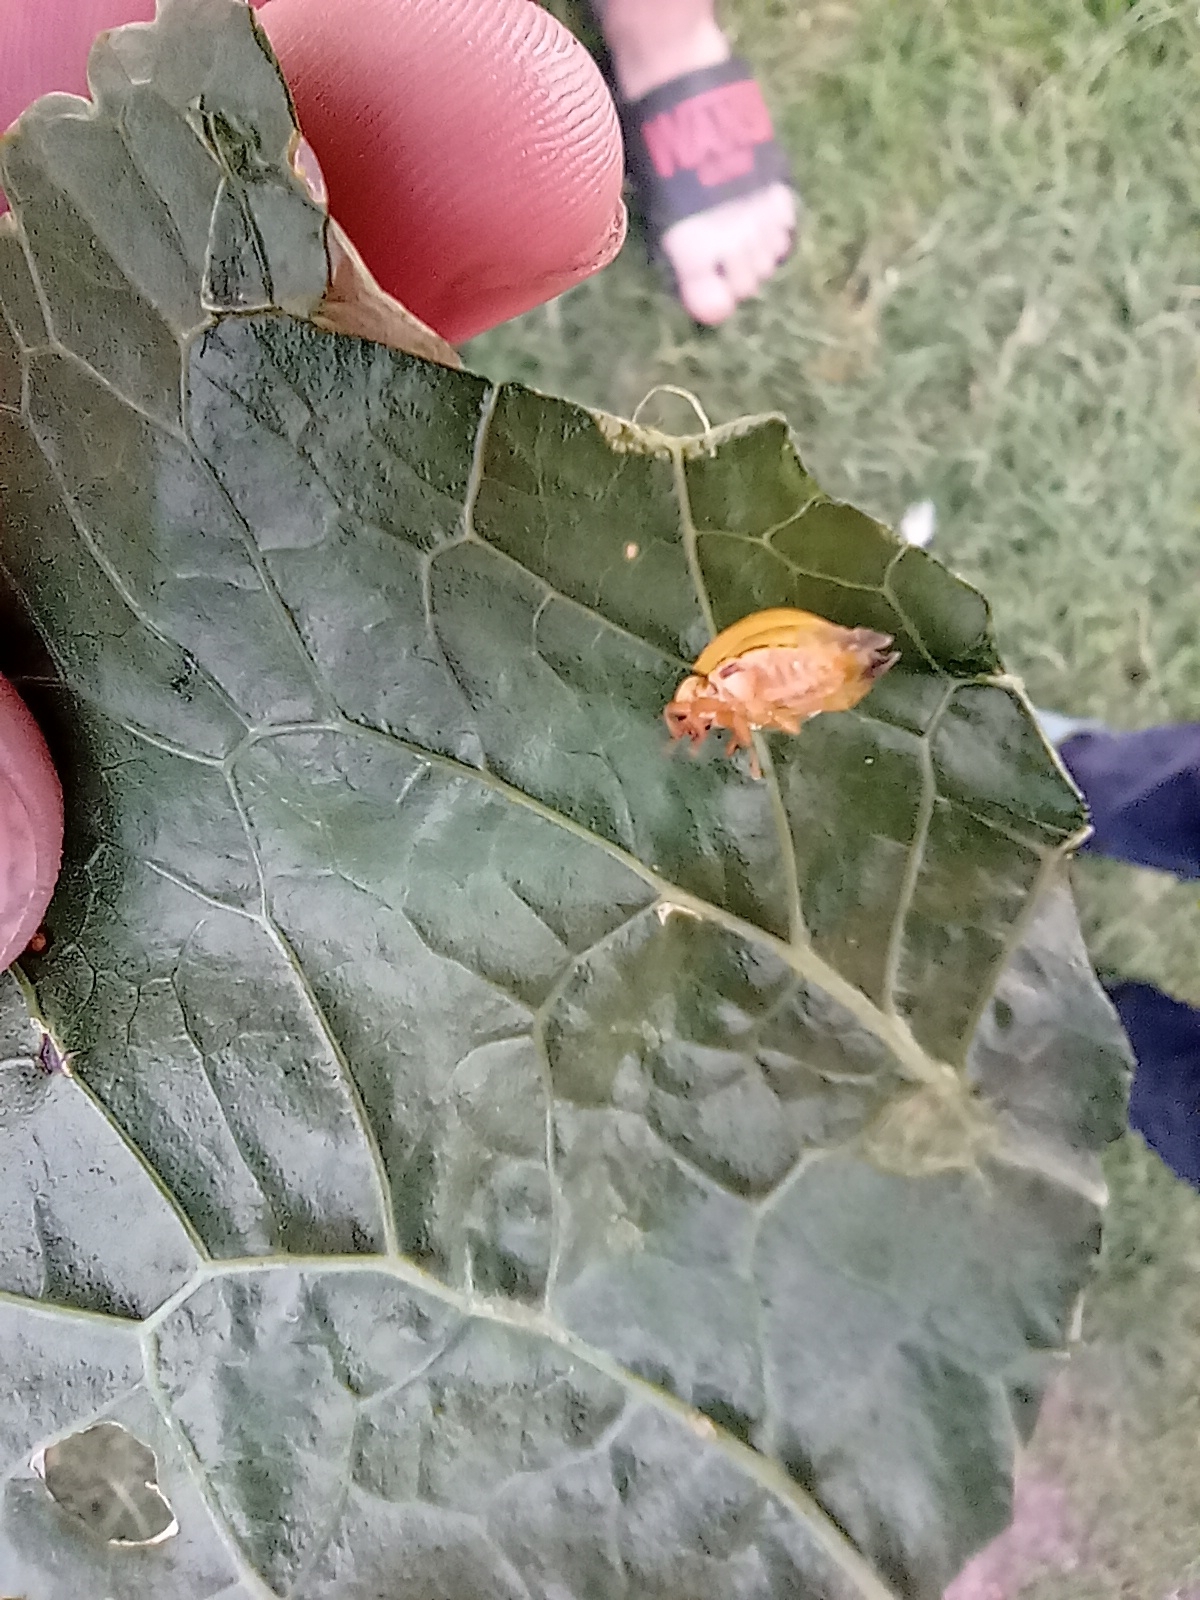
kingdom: Animalia
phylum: Arthropoda
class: Insecta
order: Coleoptera
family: Coccinellidae
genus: Harmonia
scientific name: Harmonia axyridis
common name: Harlequin ladybird
